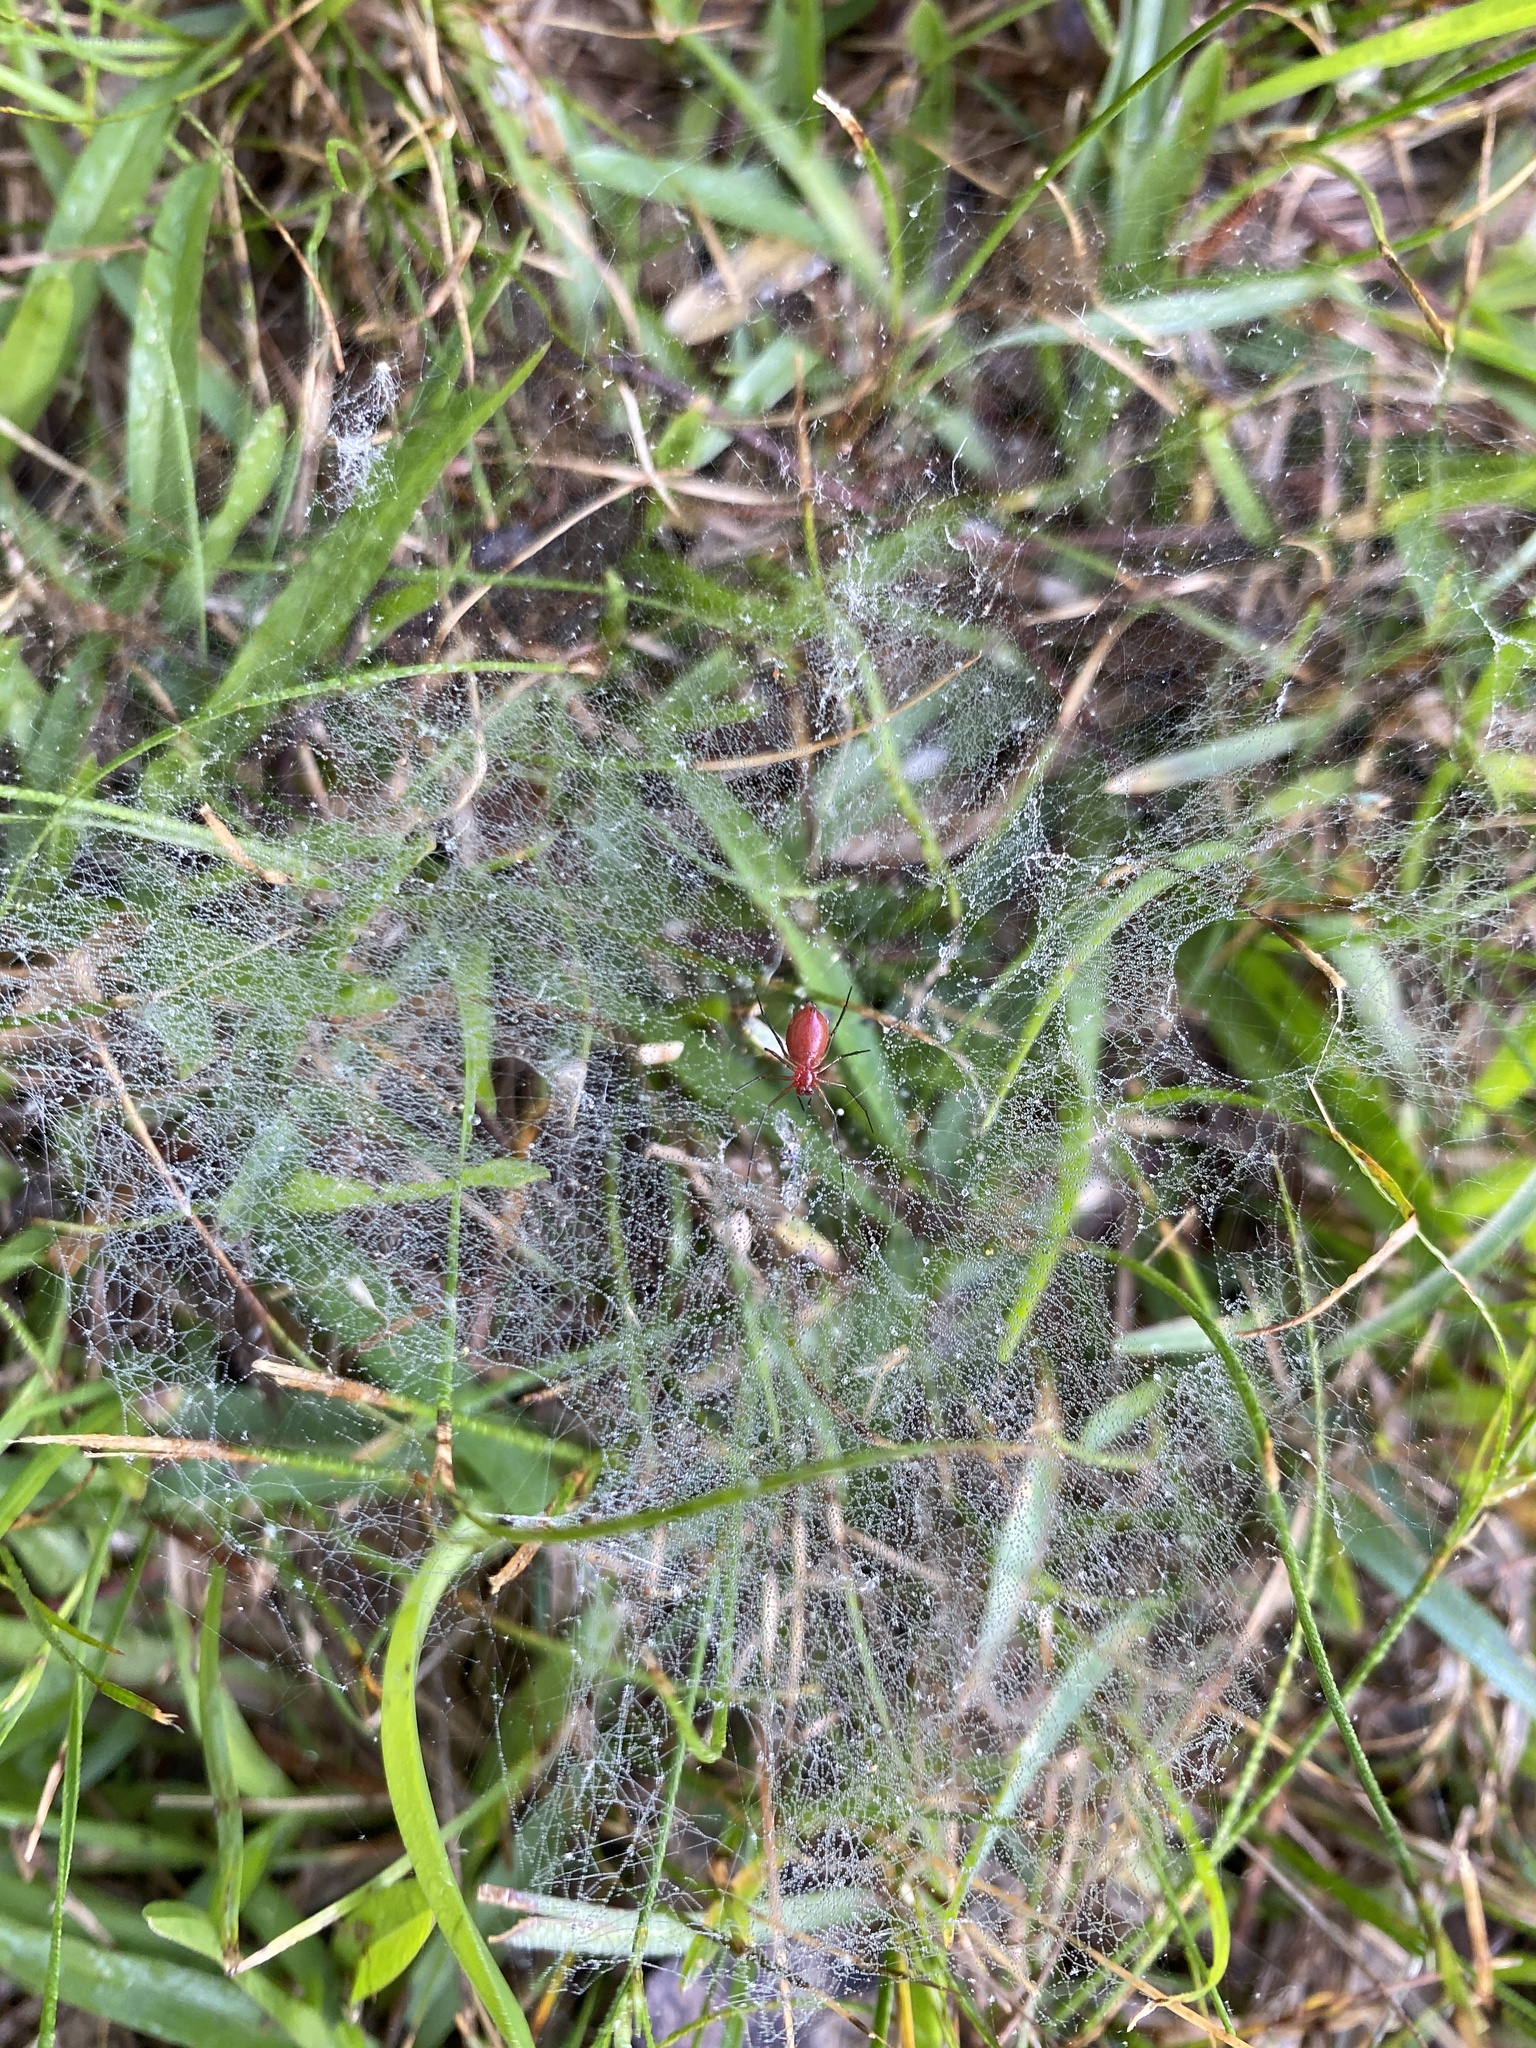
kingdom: Animalia
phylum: Arthropoda
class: Arachnida
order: Araneae
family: Linyphiidae
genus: Florinda
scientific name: Florinda coccinea
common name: Black-tailed red sheetweaver
